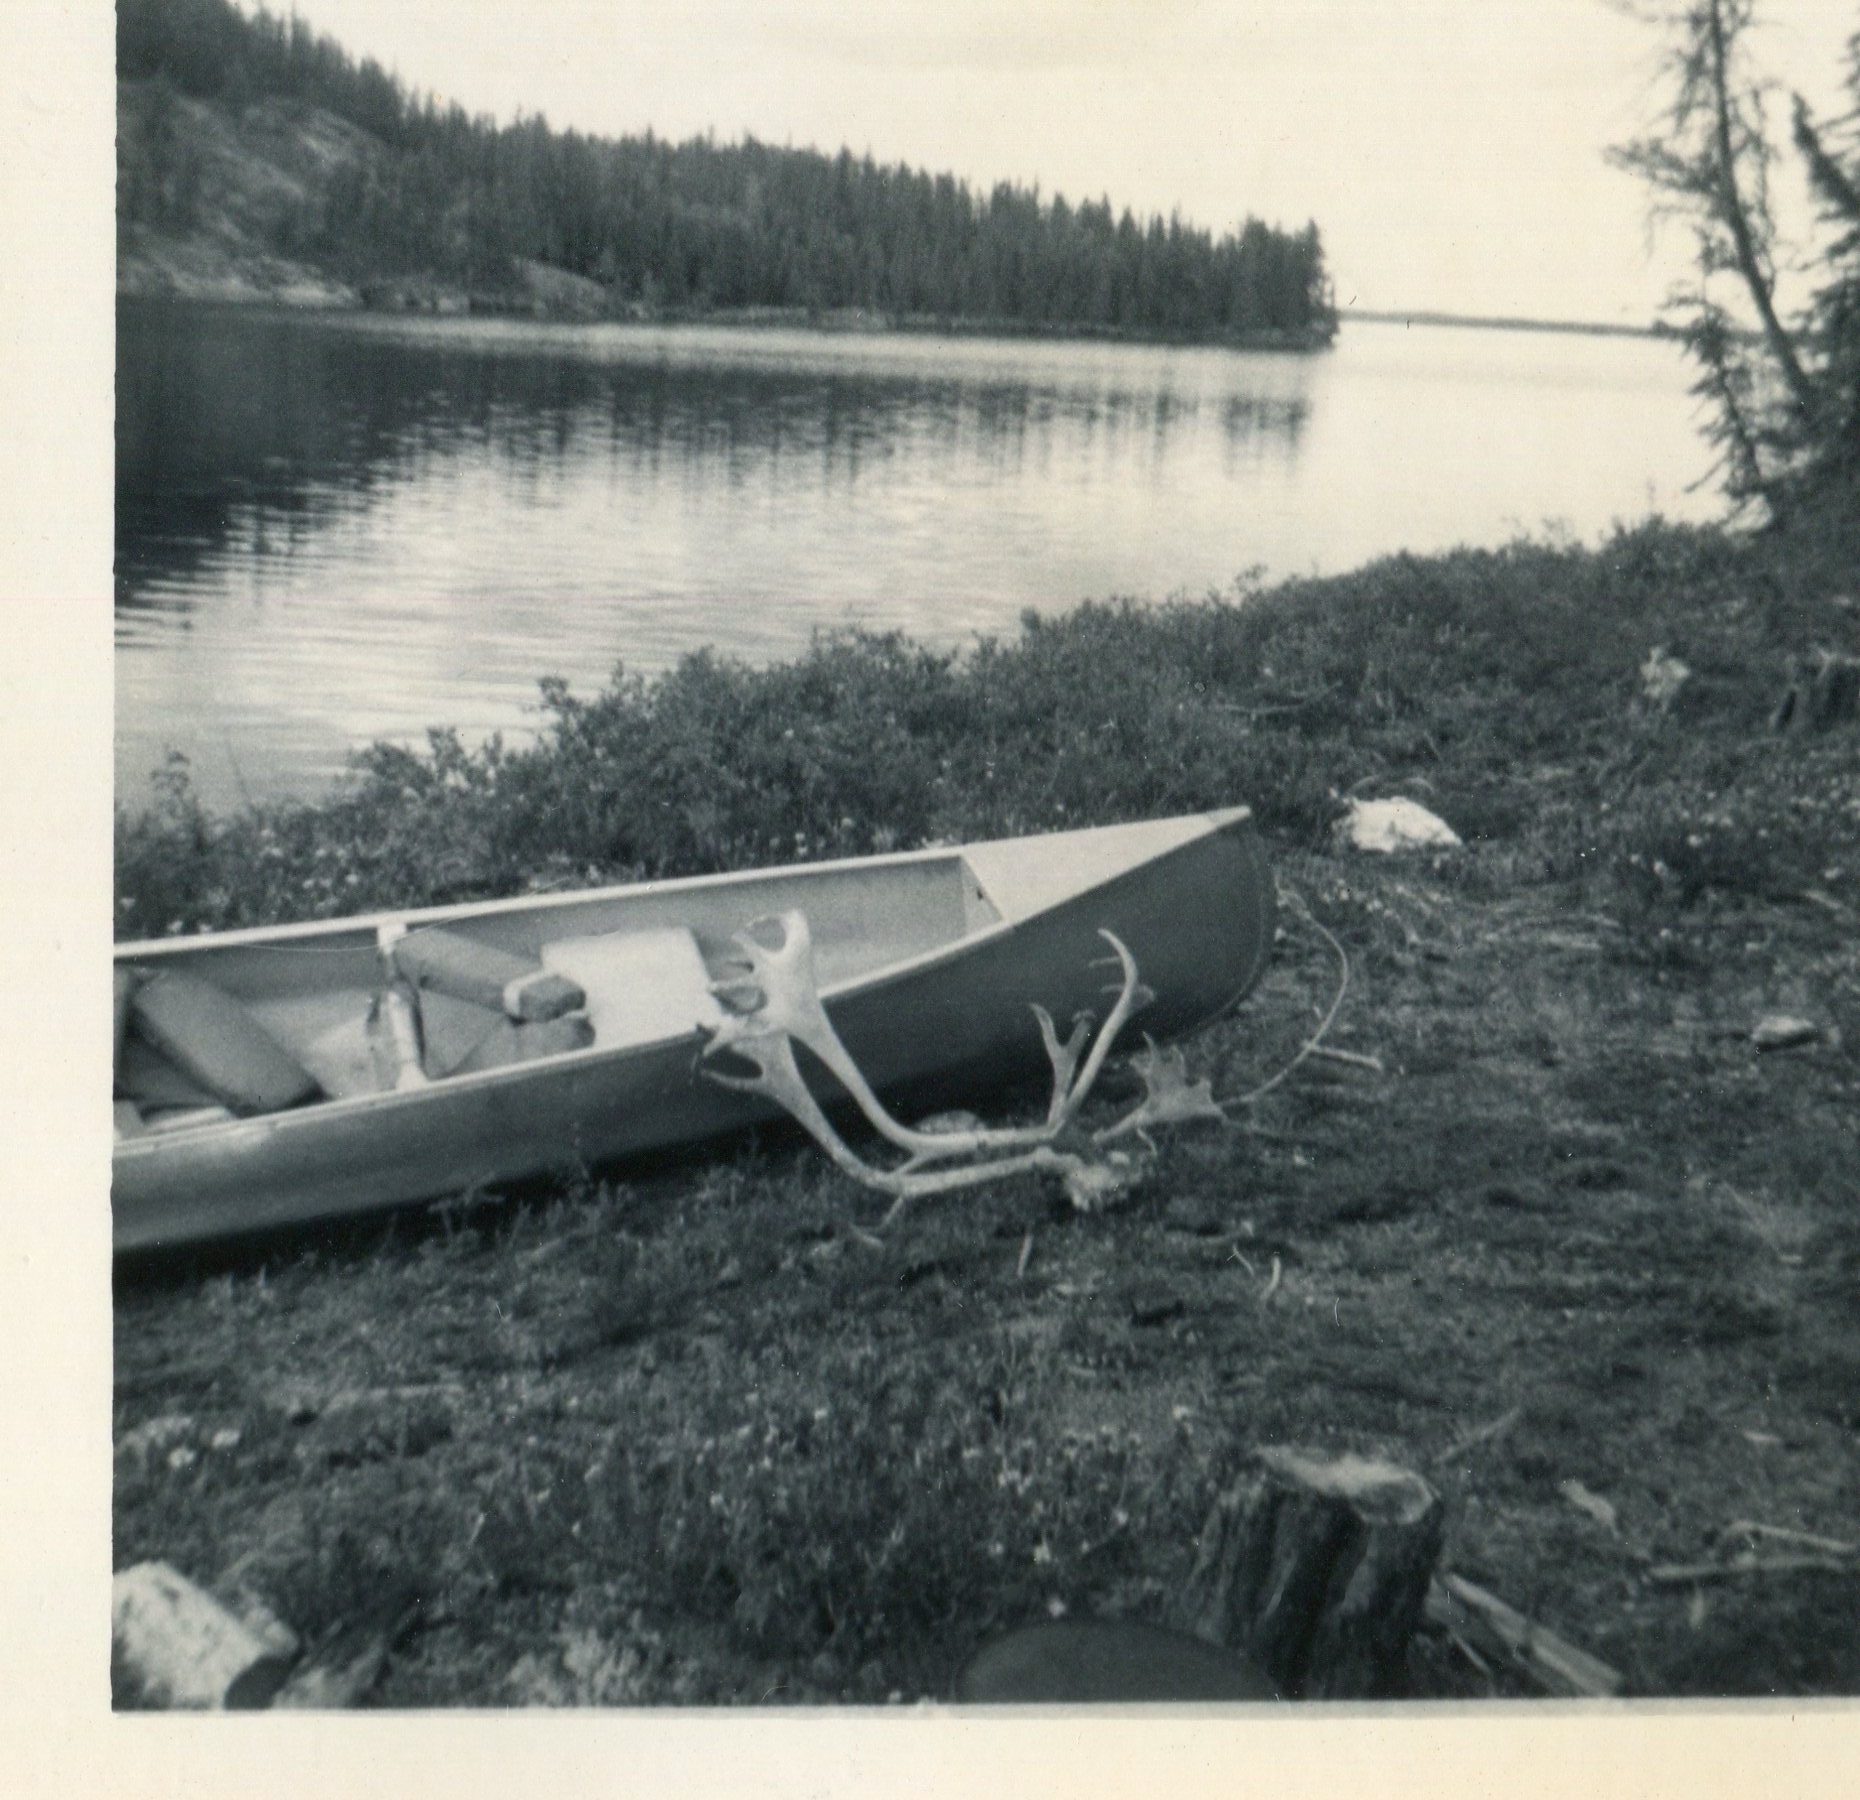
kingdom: Animalia
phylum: Chordata
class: Mammalia
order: Artiodactyla
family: Cervidae
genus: Rangifer
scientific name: Rangifer tarandus
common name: Reindeer
